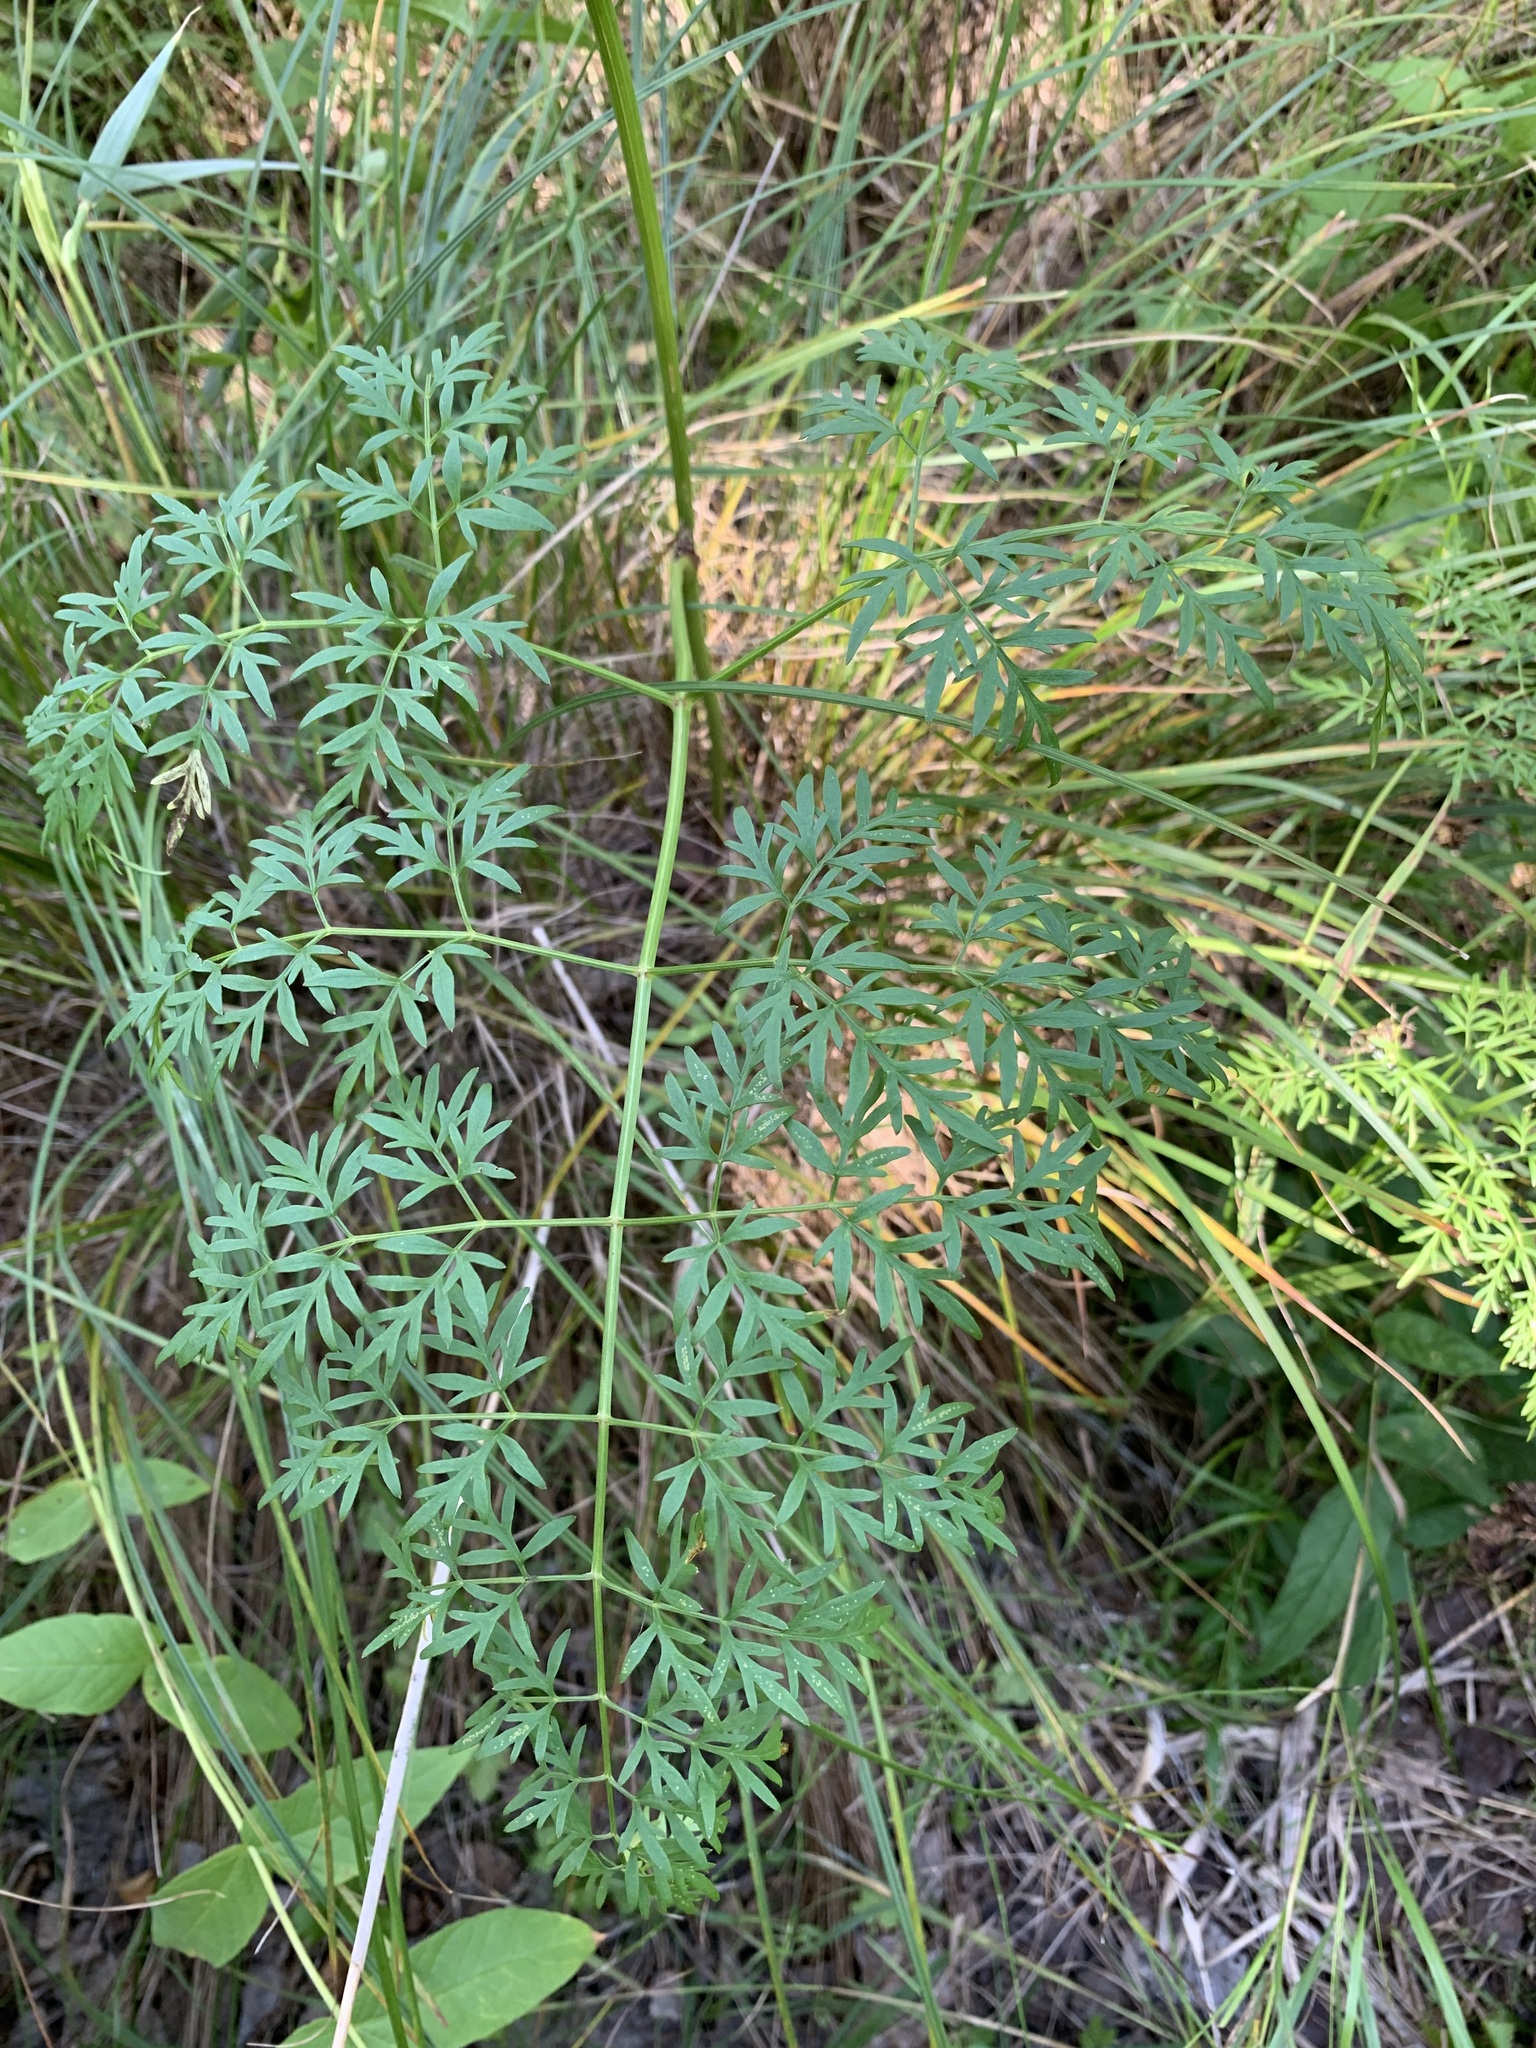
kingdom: Plantae
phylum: Tracheophyta
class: Magnoliopsida
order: Apiales
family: Apiaceae
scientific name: Apiaceae
